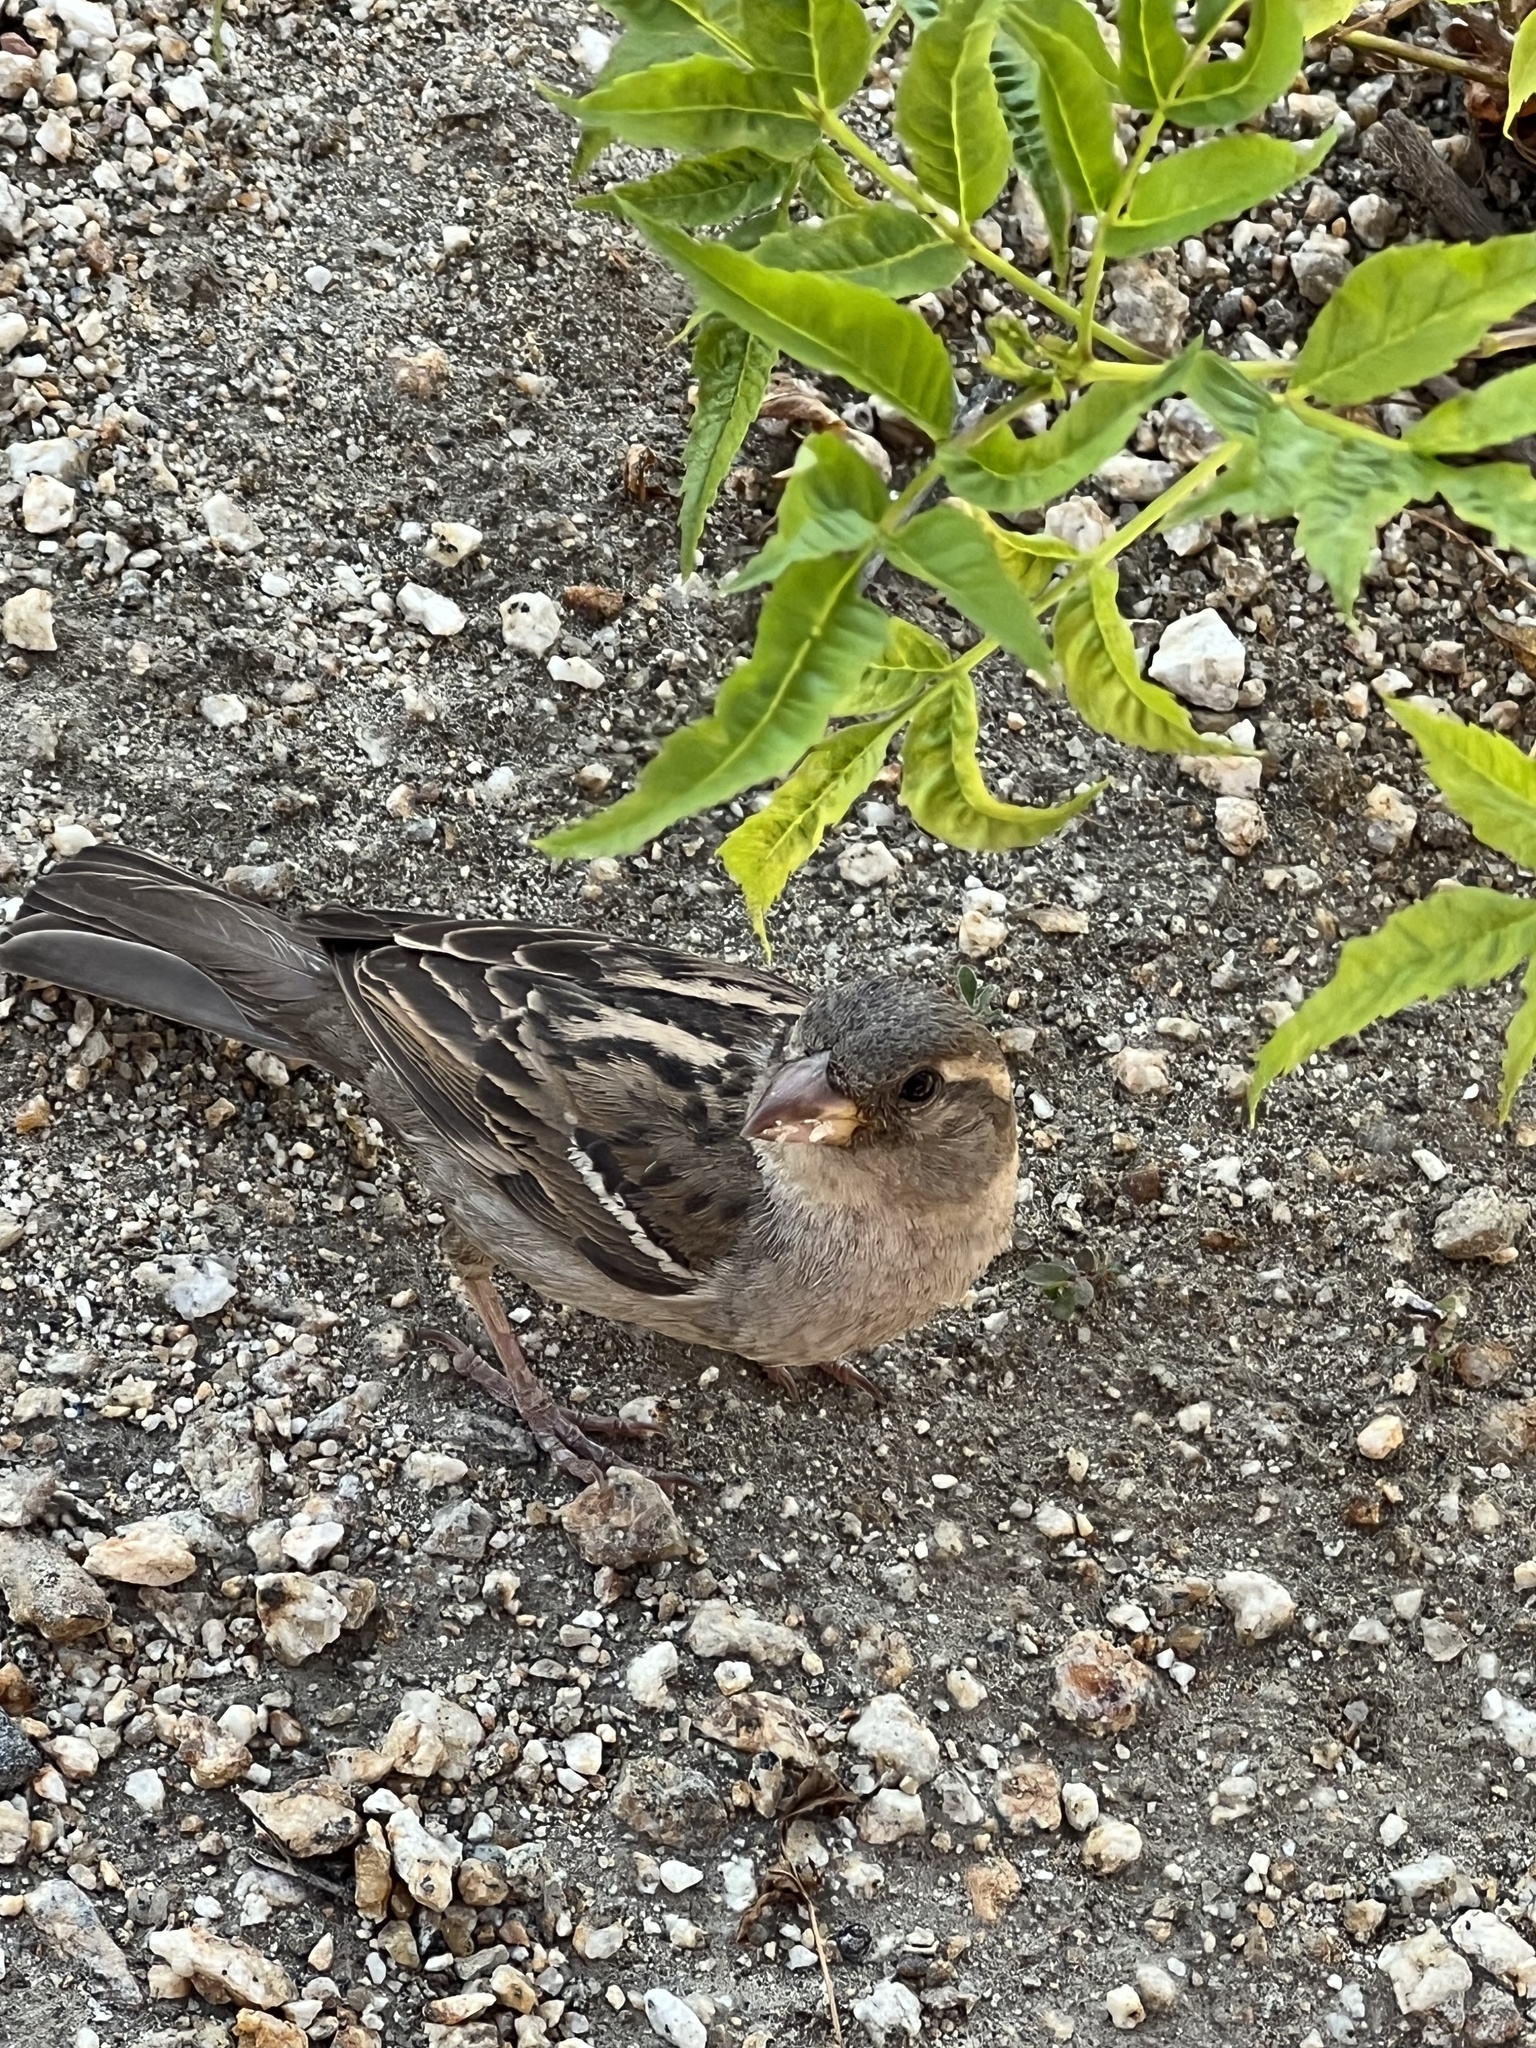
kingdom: Animalia
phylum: Chordata
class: Aves
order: Passeriformes
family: Passeridae
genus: Passer
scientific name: Passer domesticus
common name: House sparrow
